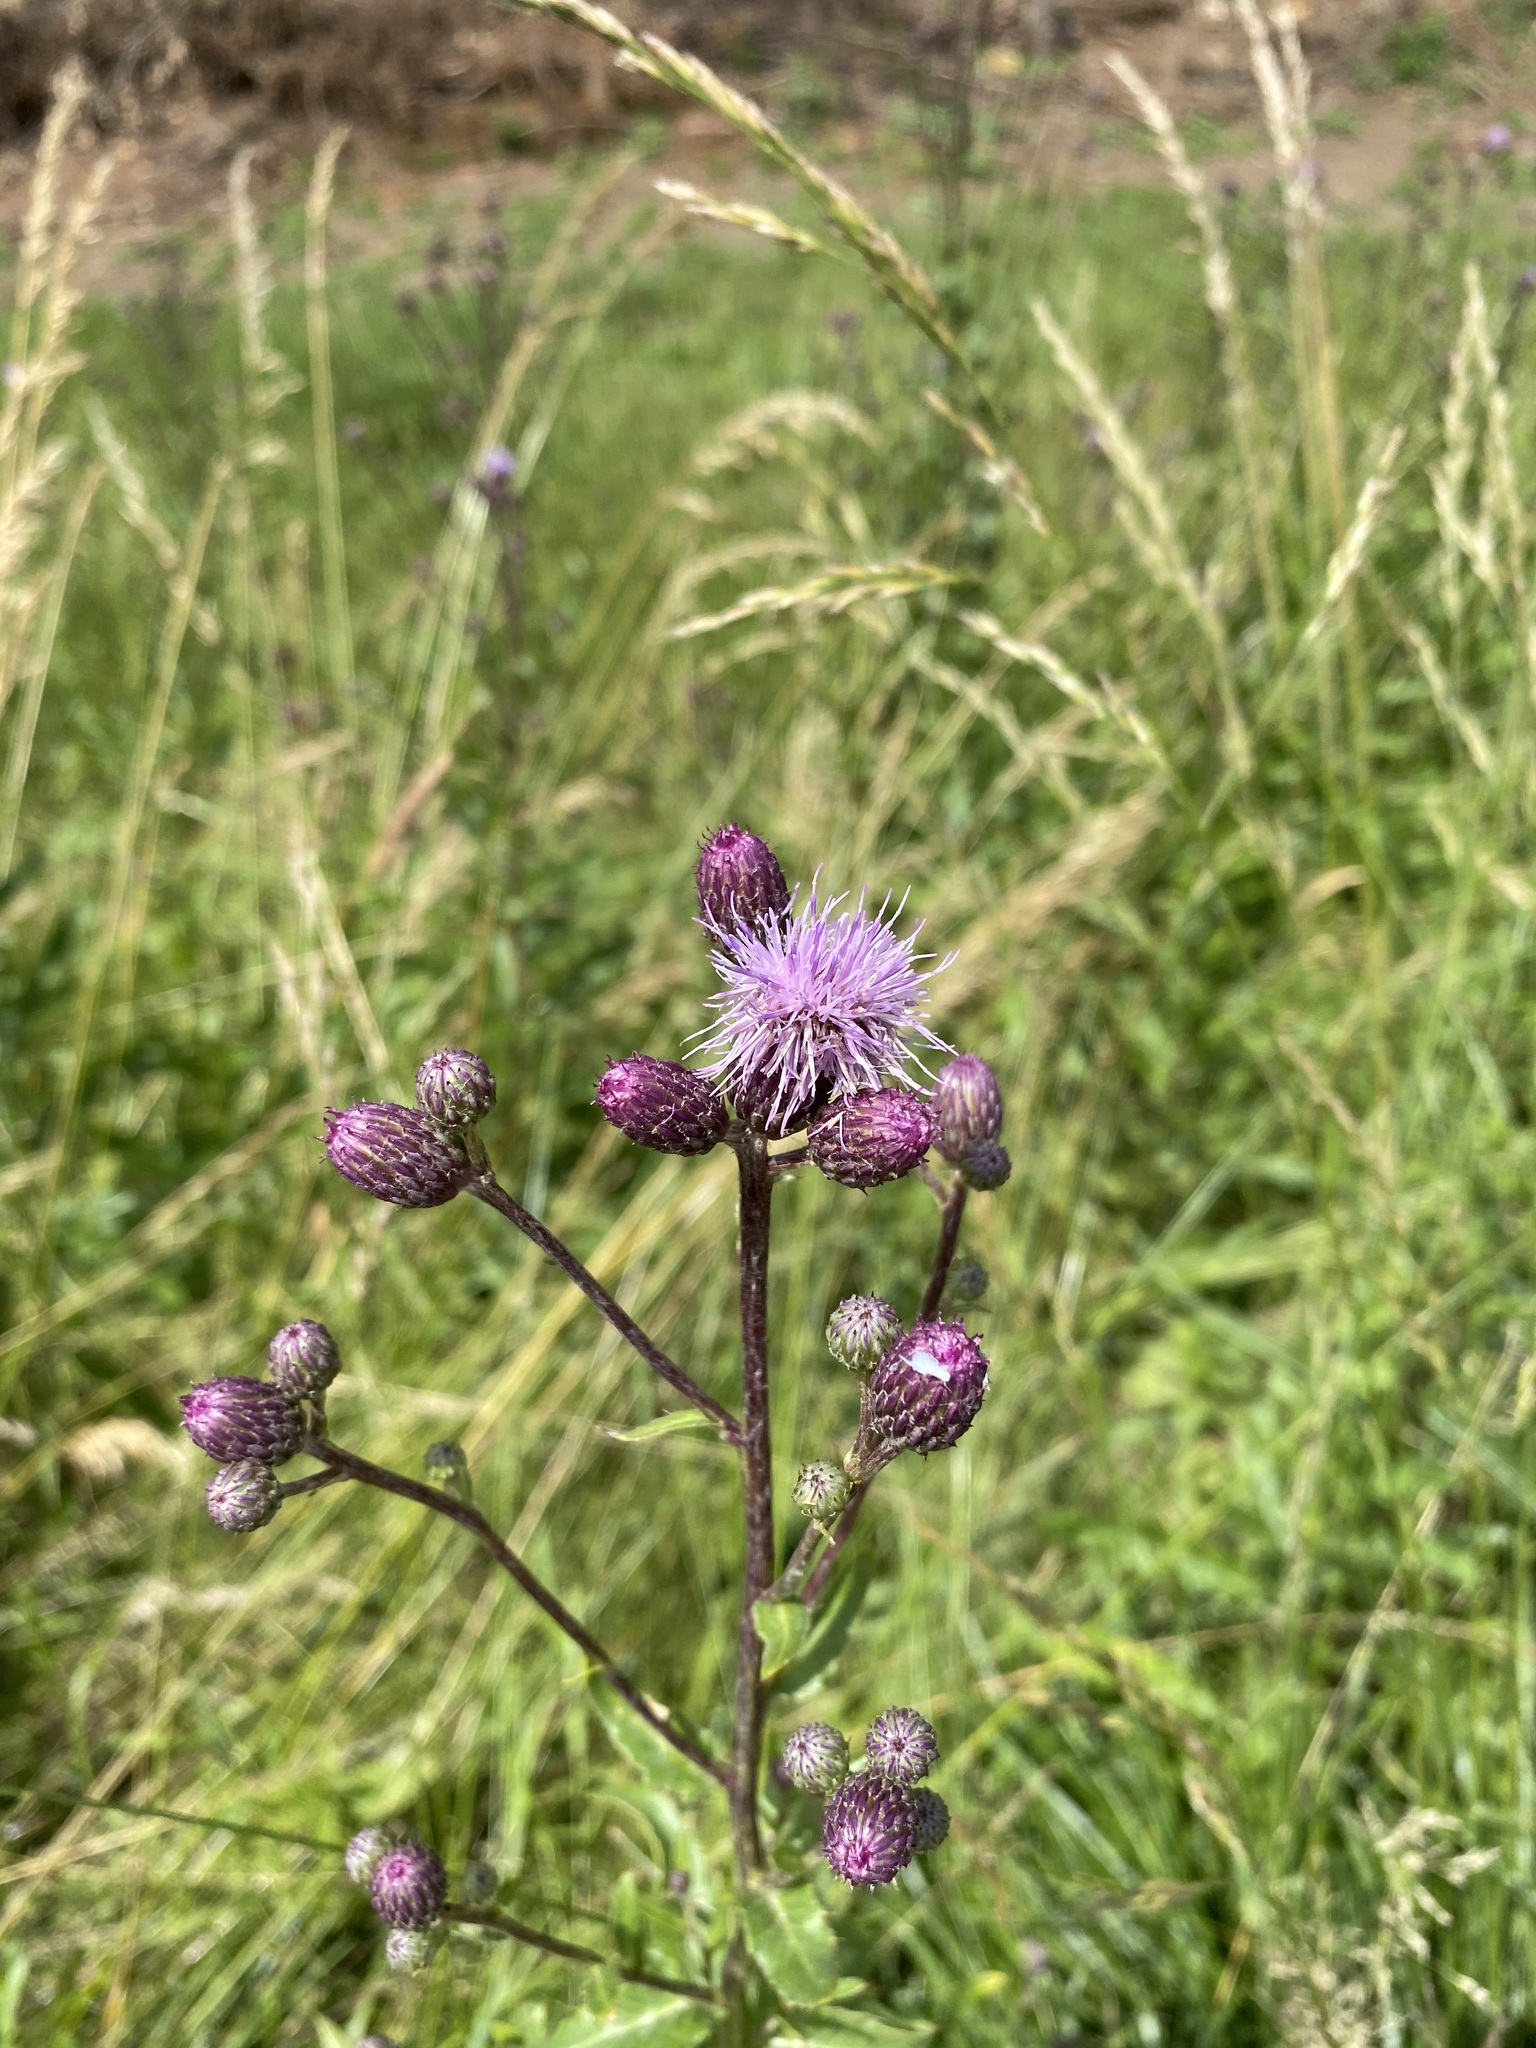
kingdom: Plantae
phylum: Tracheophyta
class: Magnoliopsida
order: Asterales
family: Asteraceae
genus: Cirsium
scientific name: Cirsium arvense
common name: Creeping thistle
